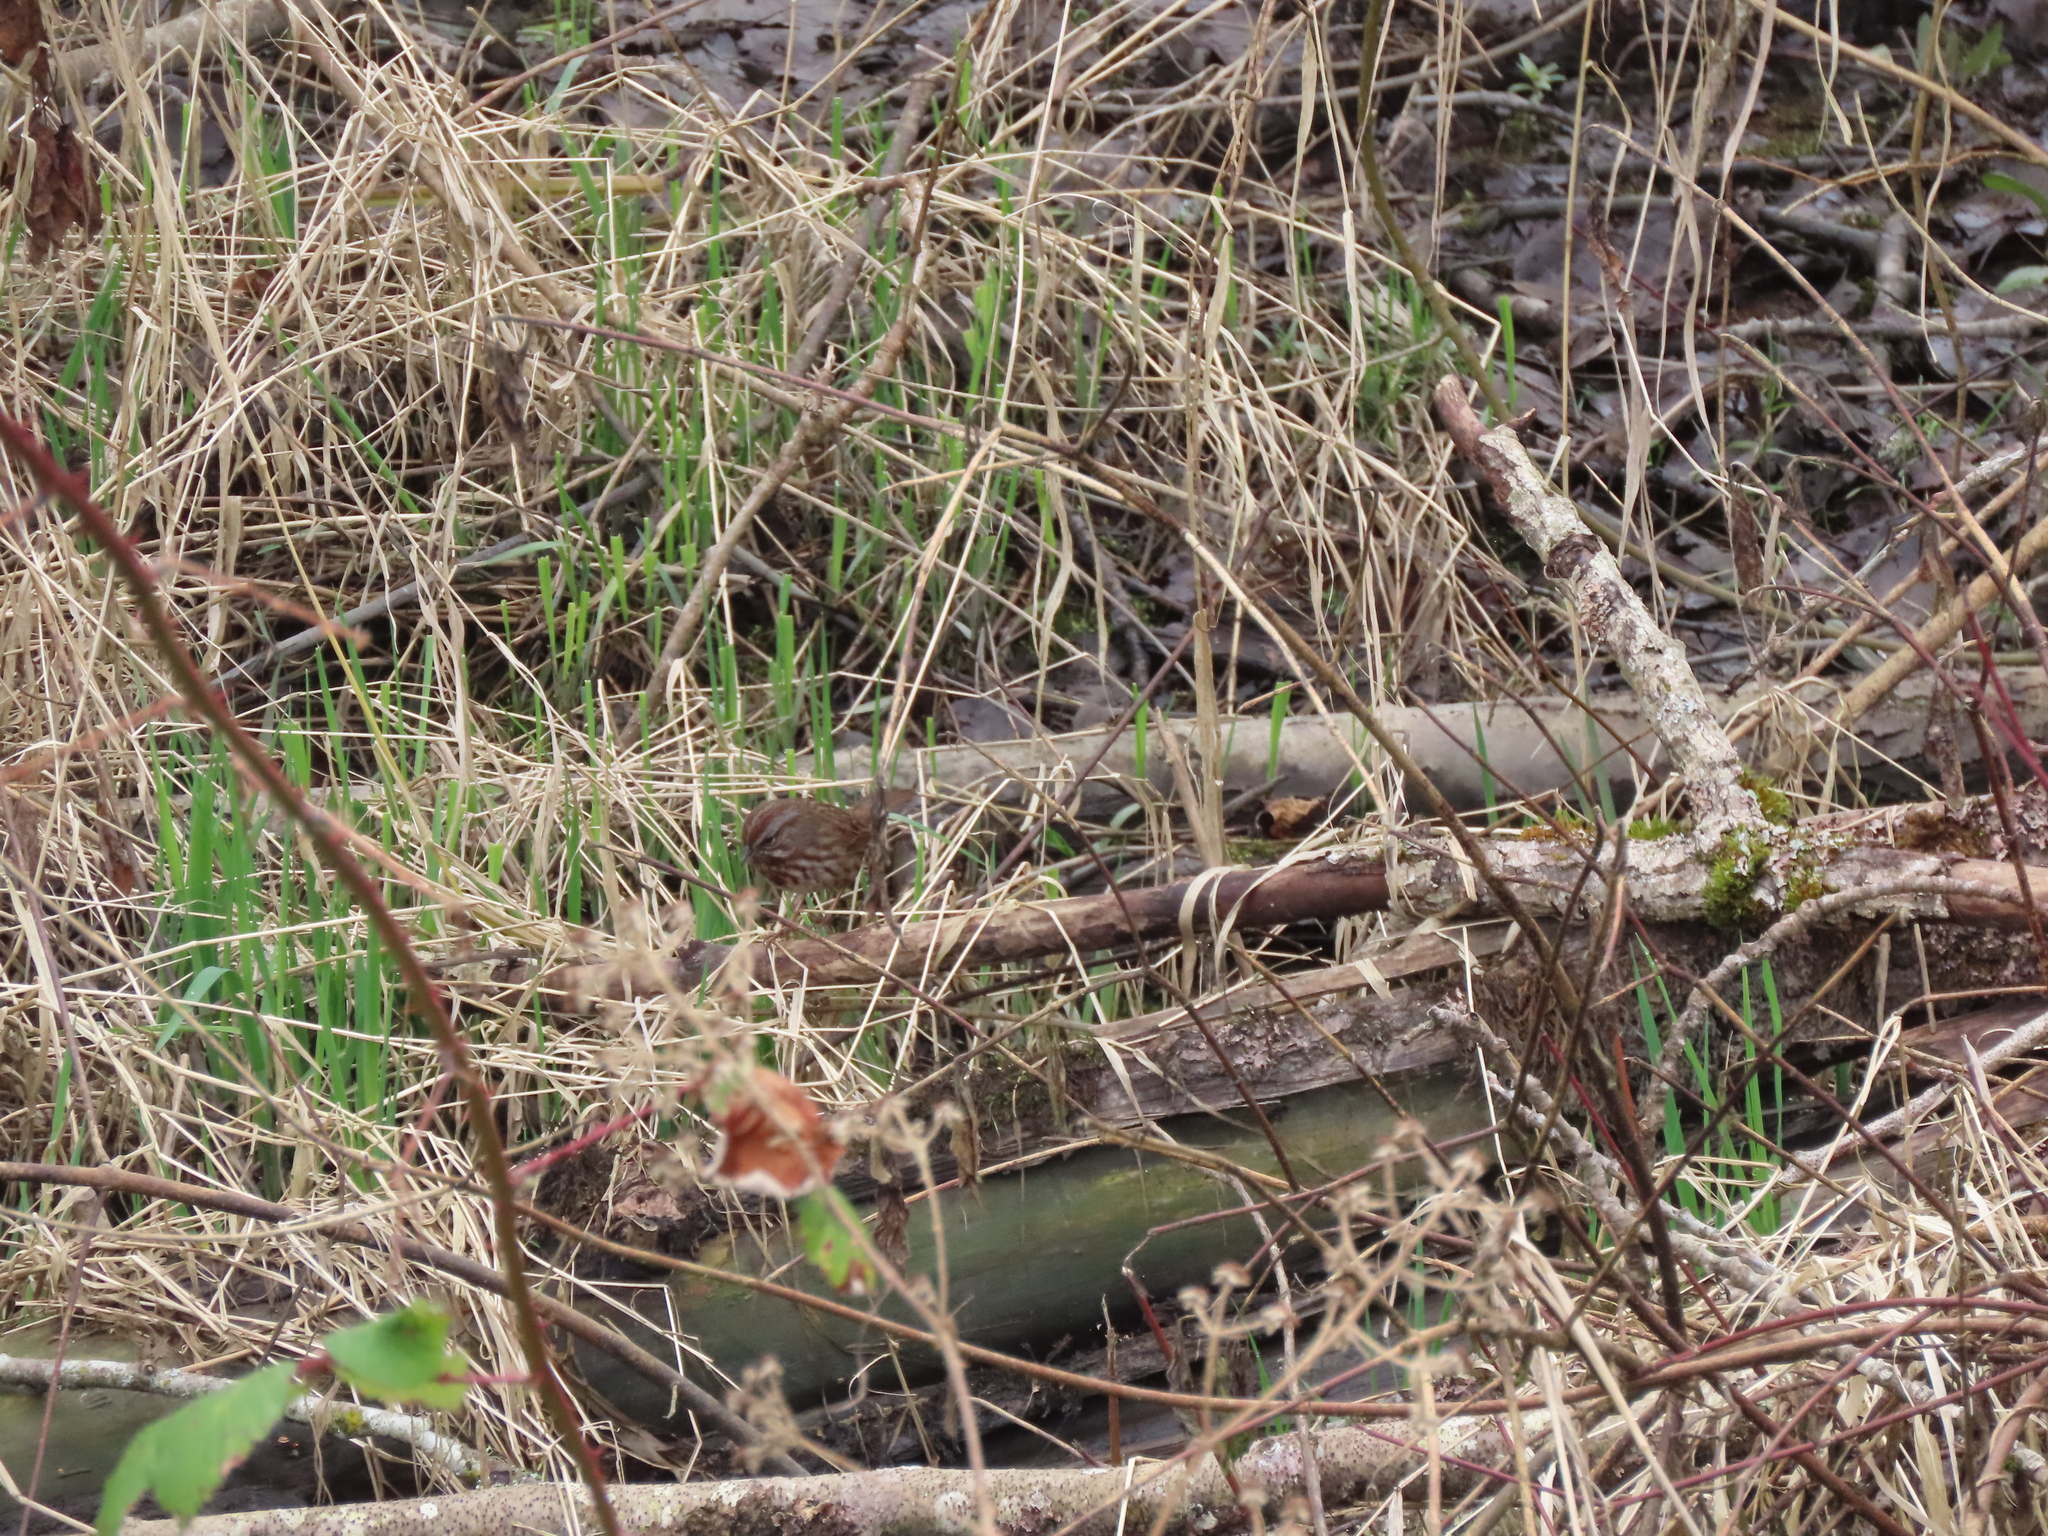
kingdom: Animalia
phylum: Chordata
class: Aves
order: Passeriformes
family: Passerellidae
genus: Melospiza
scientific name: Melospiza melodia
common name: Song sparrow
